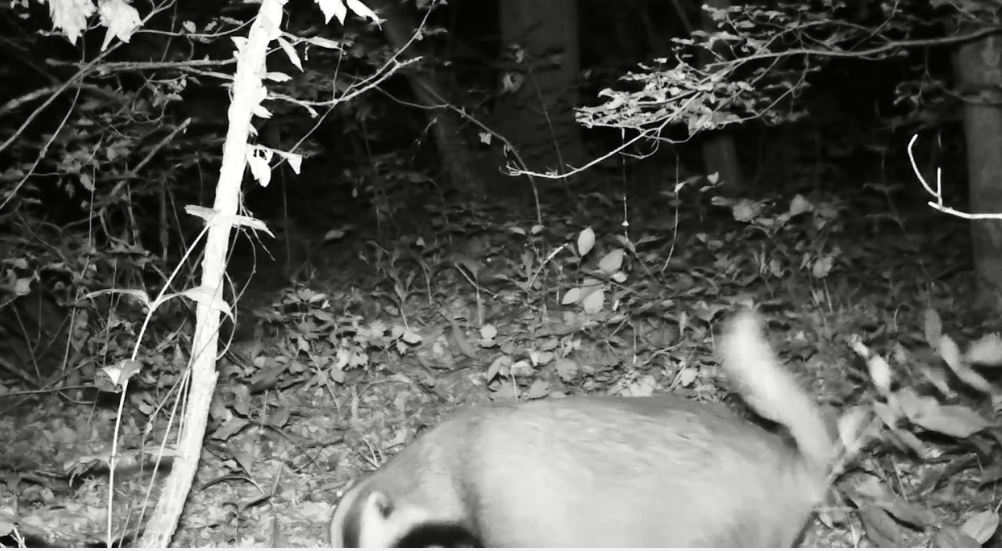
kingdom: Animalia
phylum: Chordata
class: Mammalia
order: Carnivora
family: Mustelidae
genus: Meles
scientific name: Meles leucurus
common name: Asian badger
